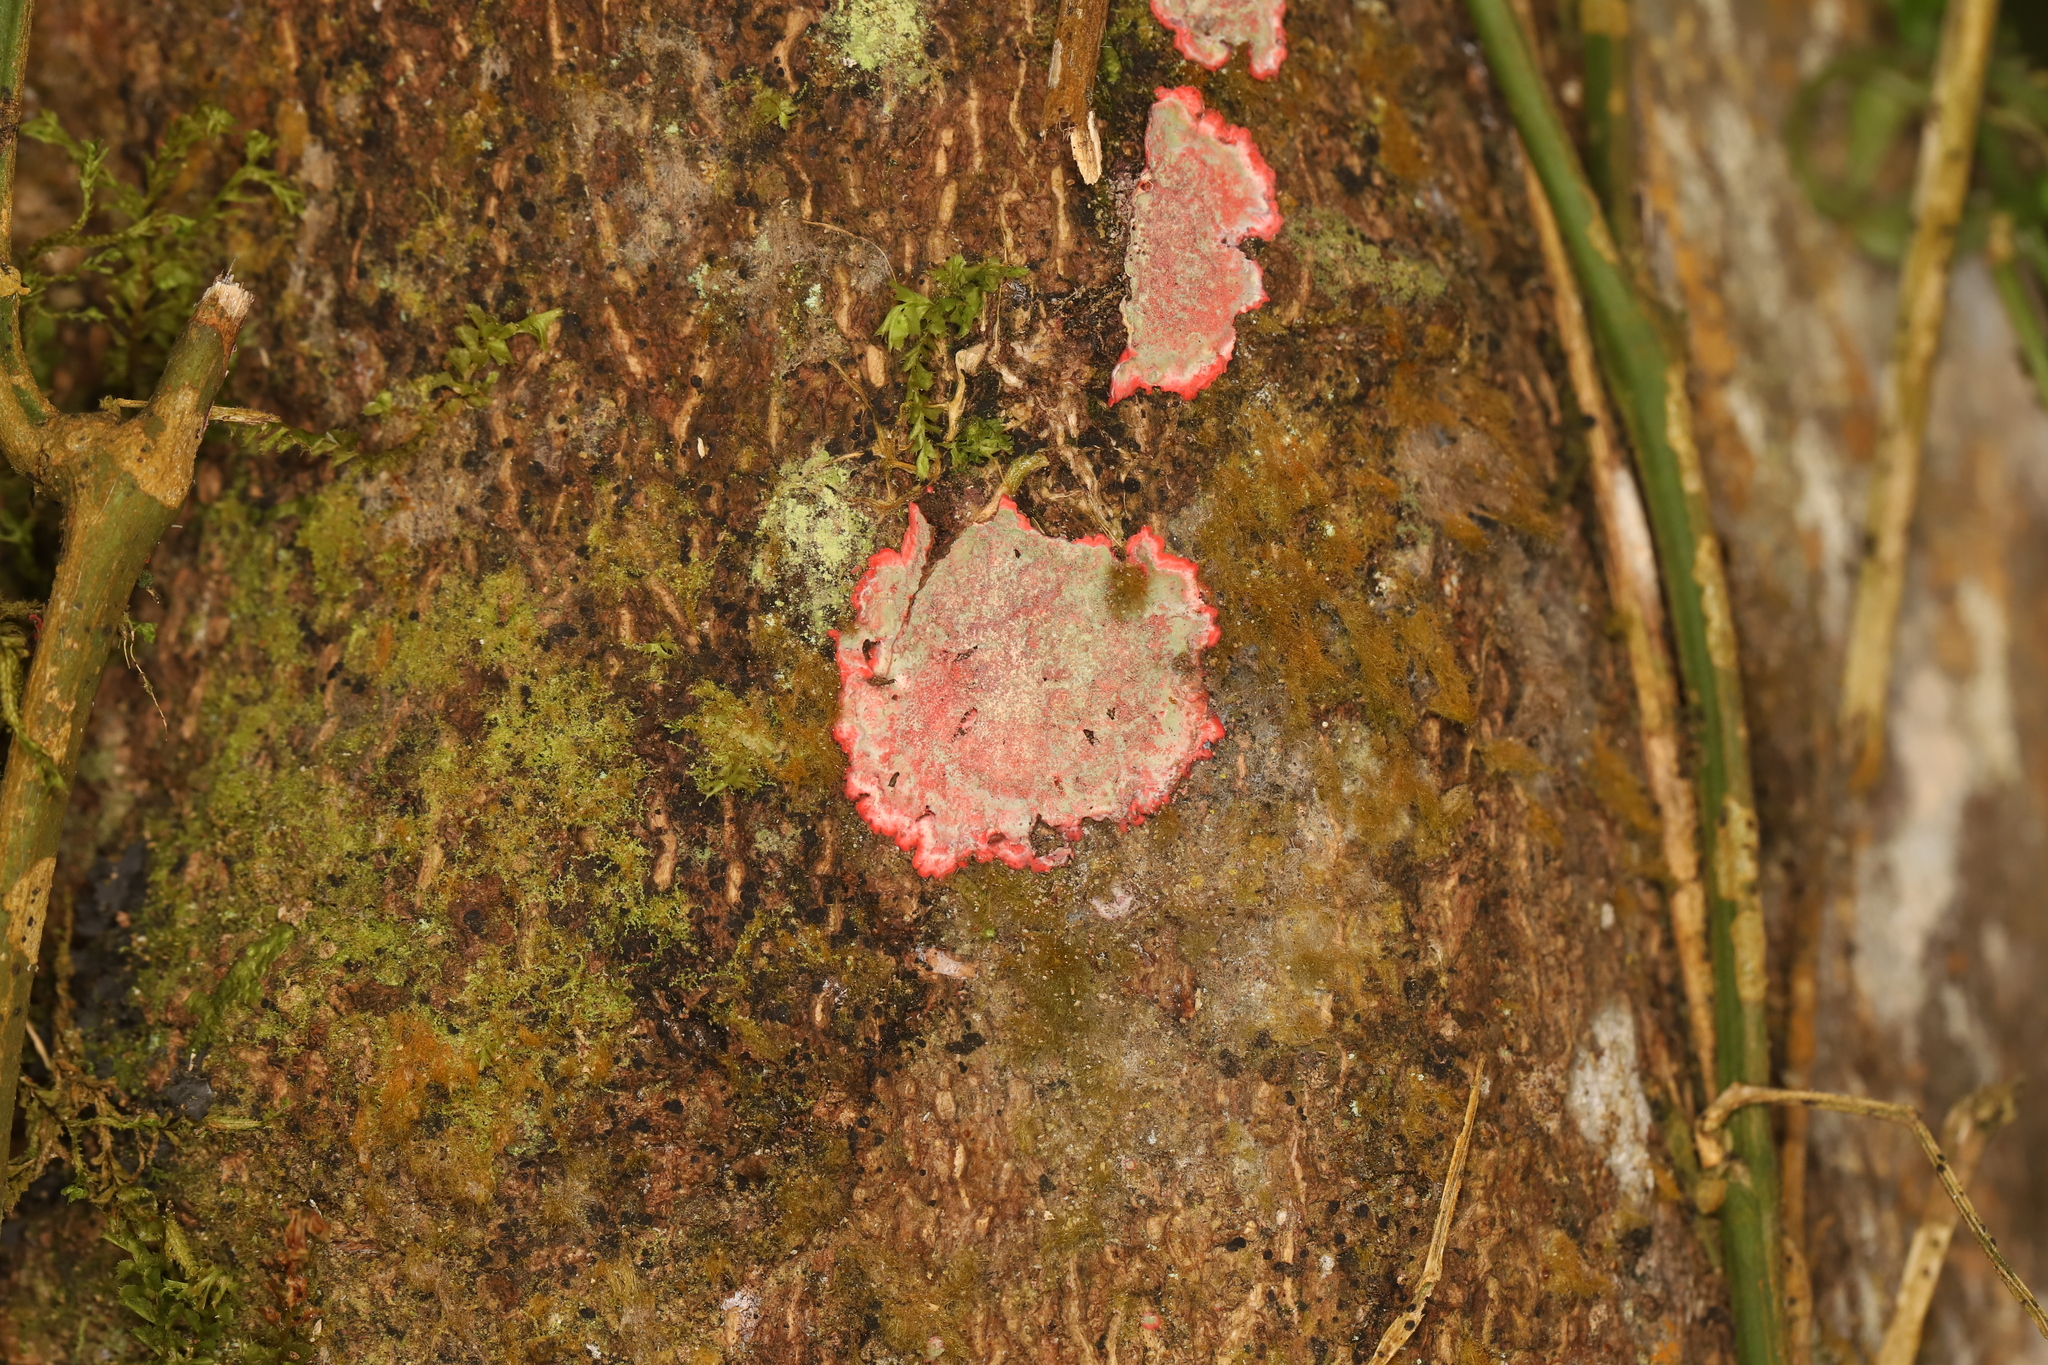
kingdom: Fungi
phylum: Ascomycota
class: Arthoniomycetes
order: Arthoniales
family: Arthoniaceae
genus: Herpothallon
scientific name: Herpothallon rubrocinctum
